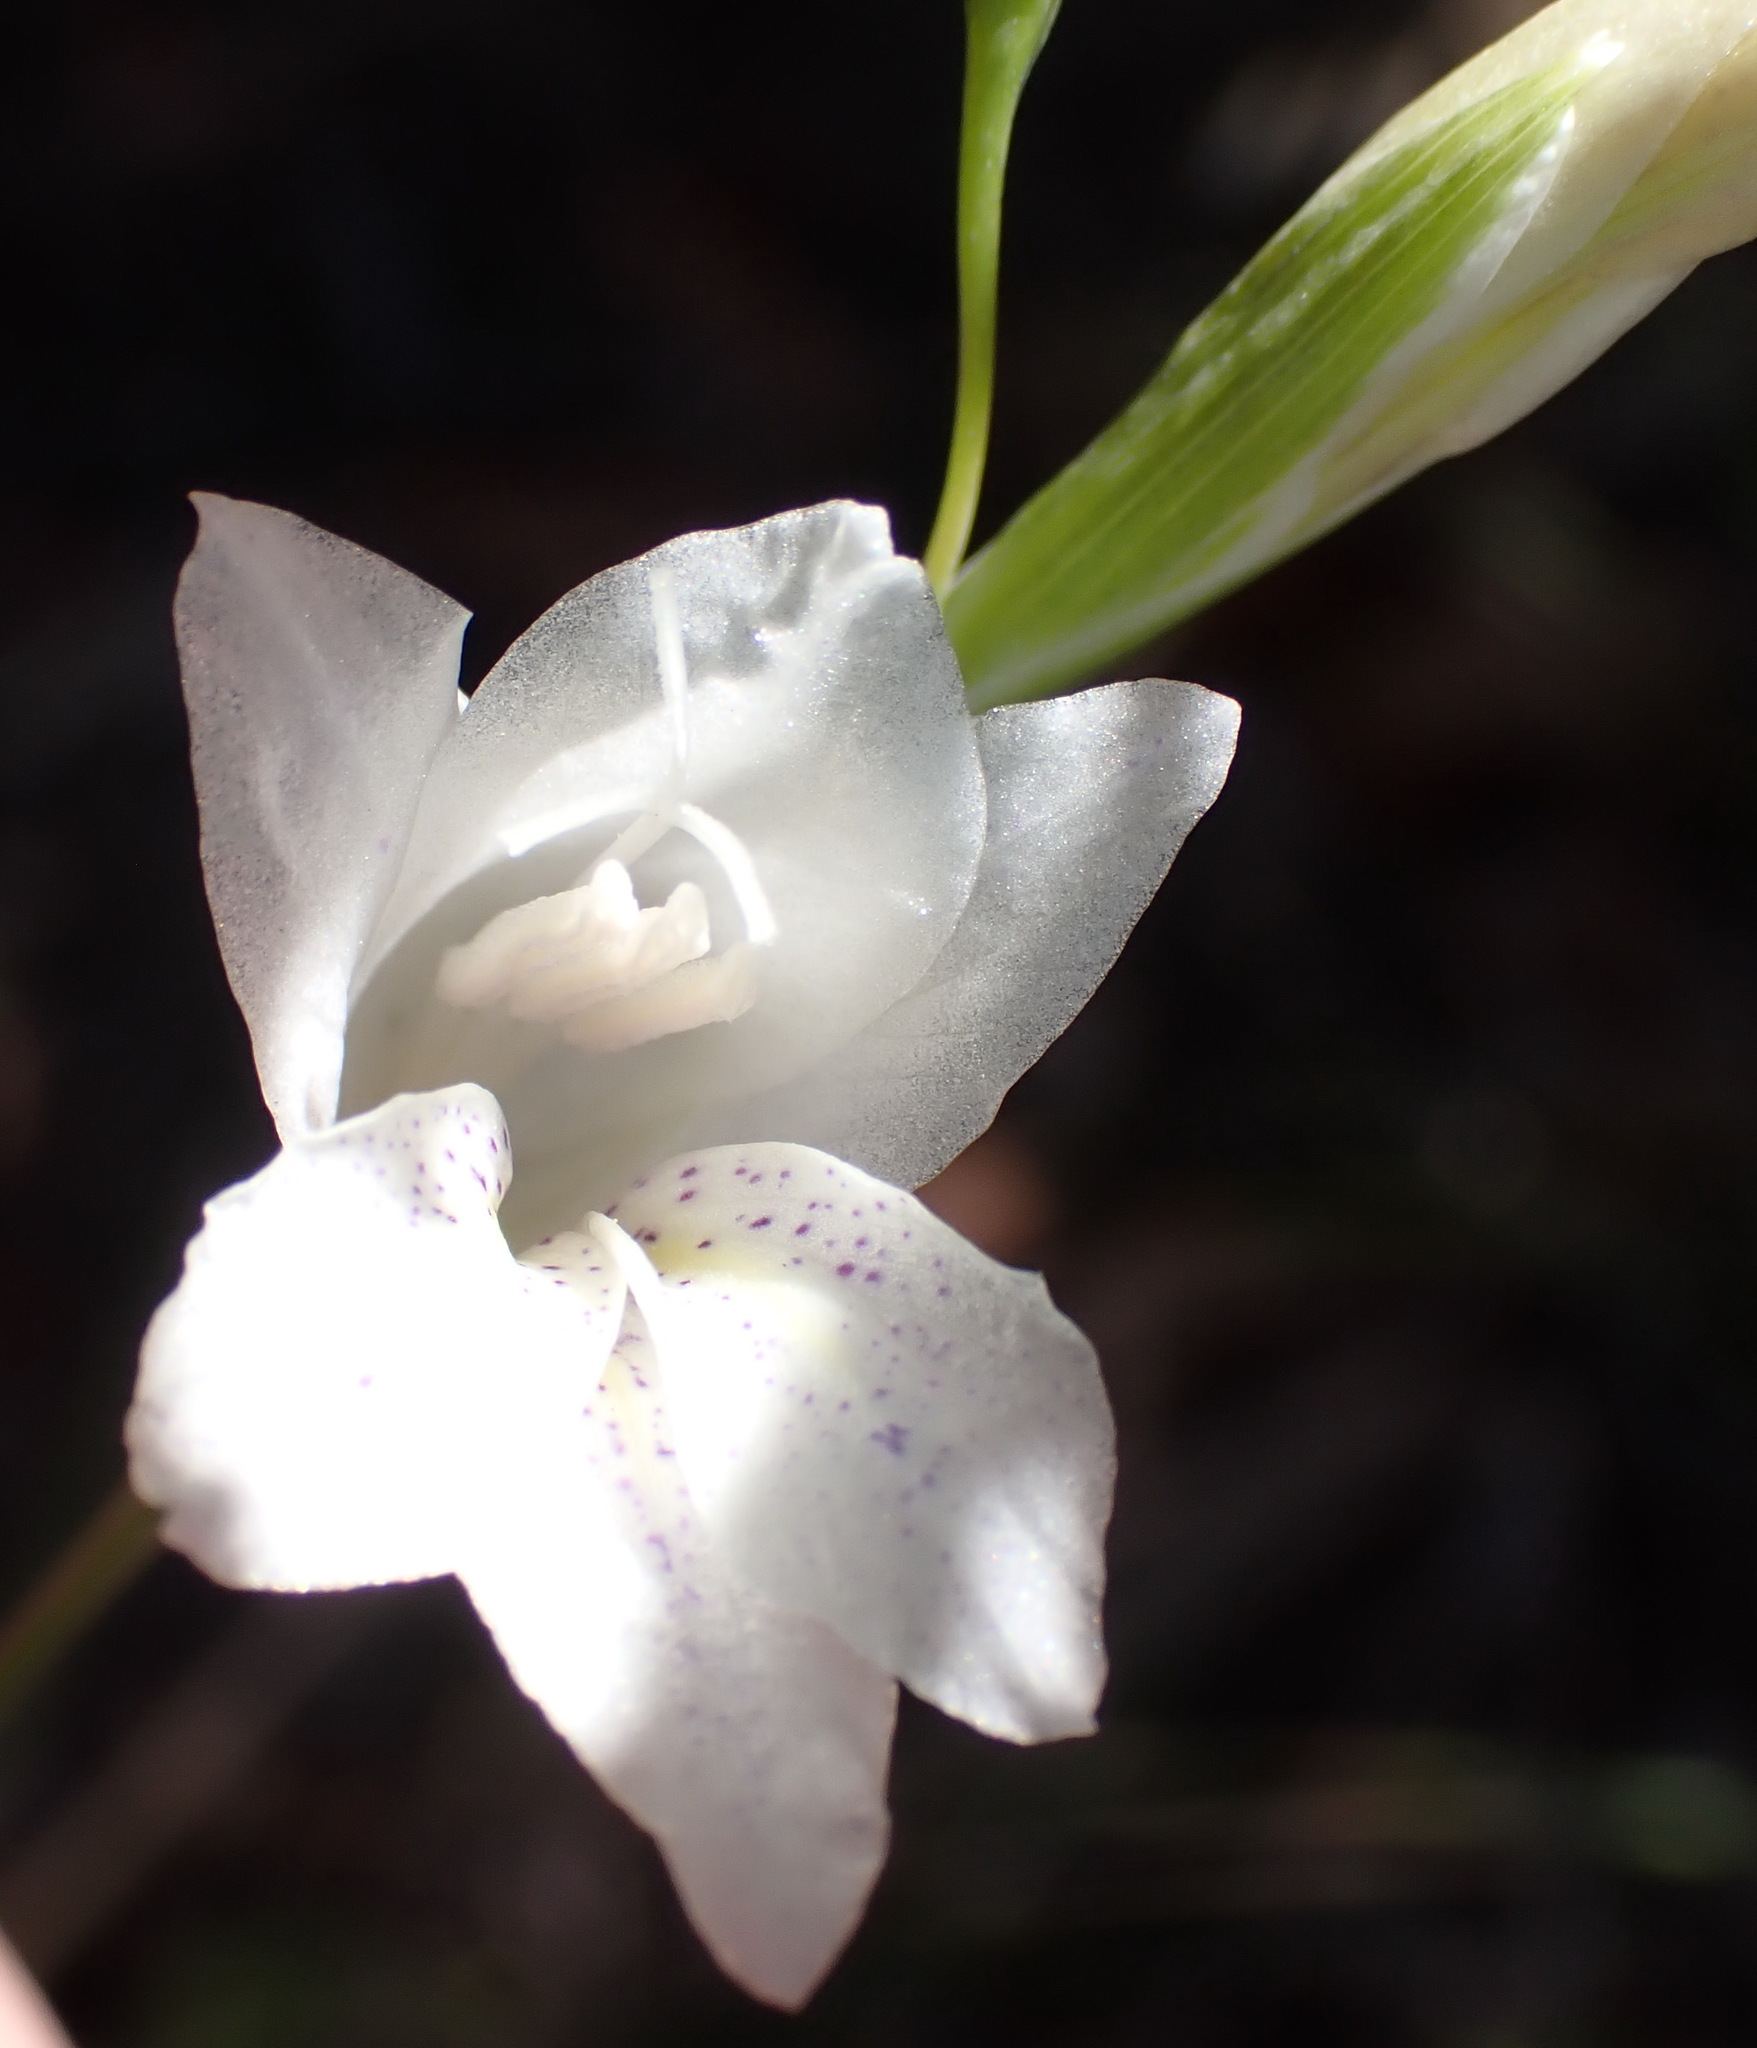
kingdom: Plantae
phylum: Tracheophyta
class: Liliopsida
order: Asparagales
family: Iridaceae
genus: Gladiolus
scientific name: Gladiolus vaginatus
